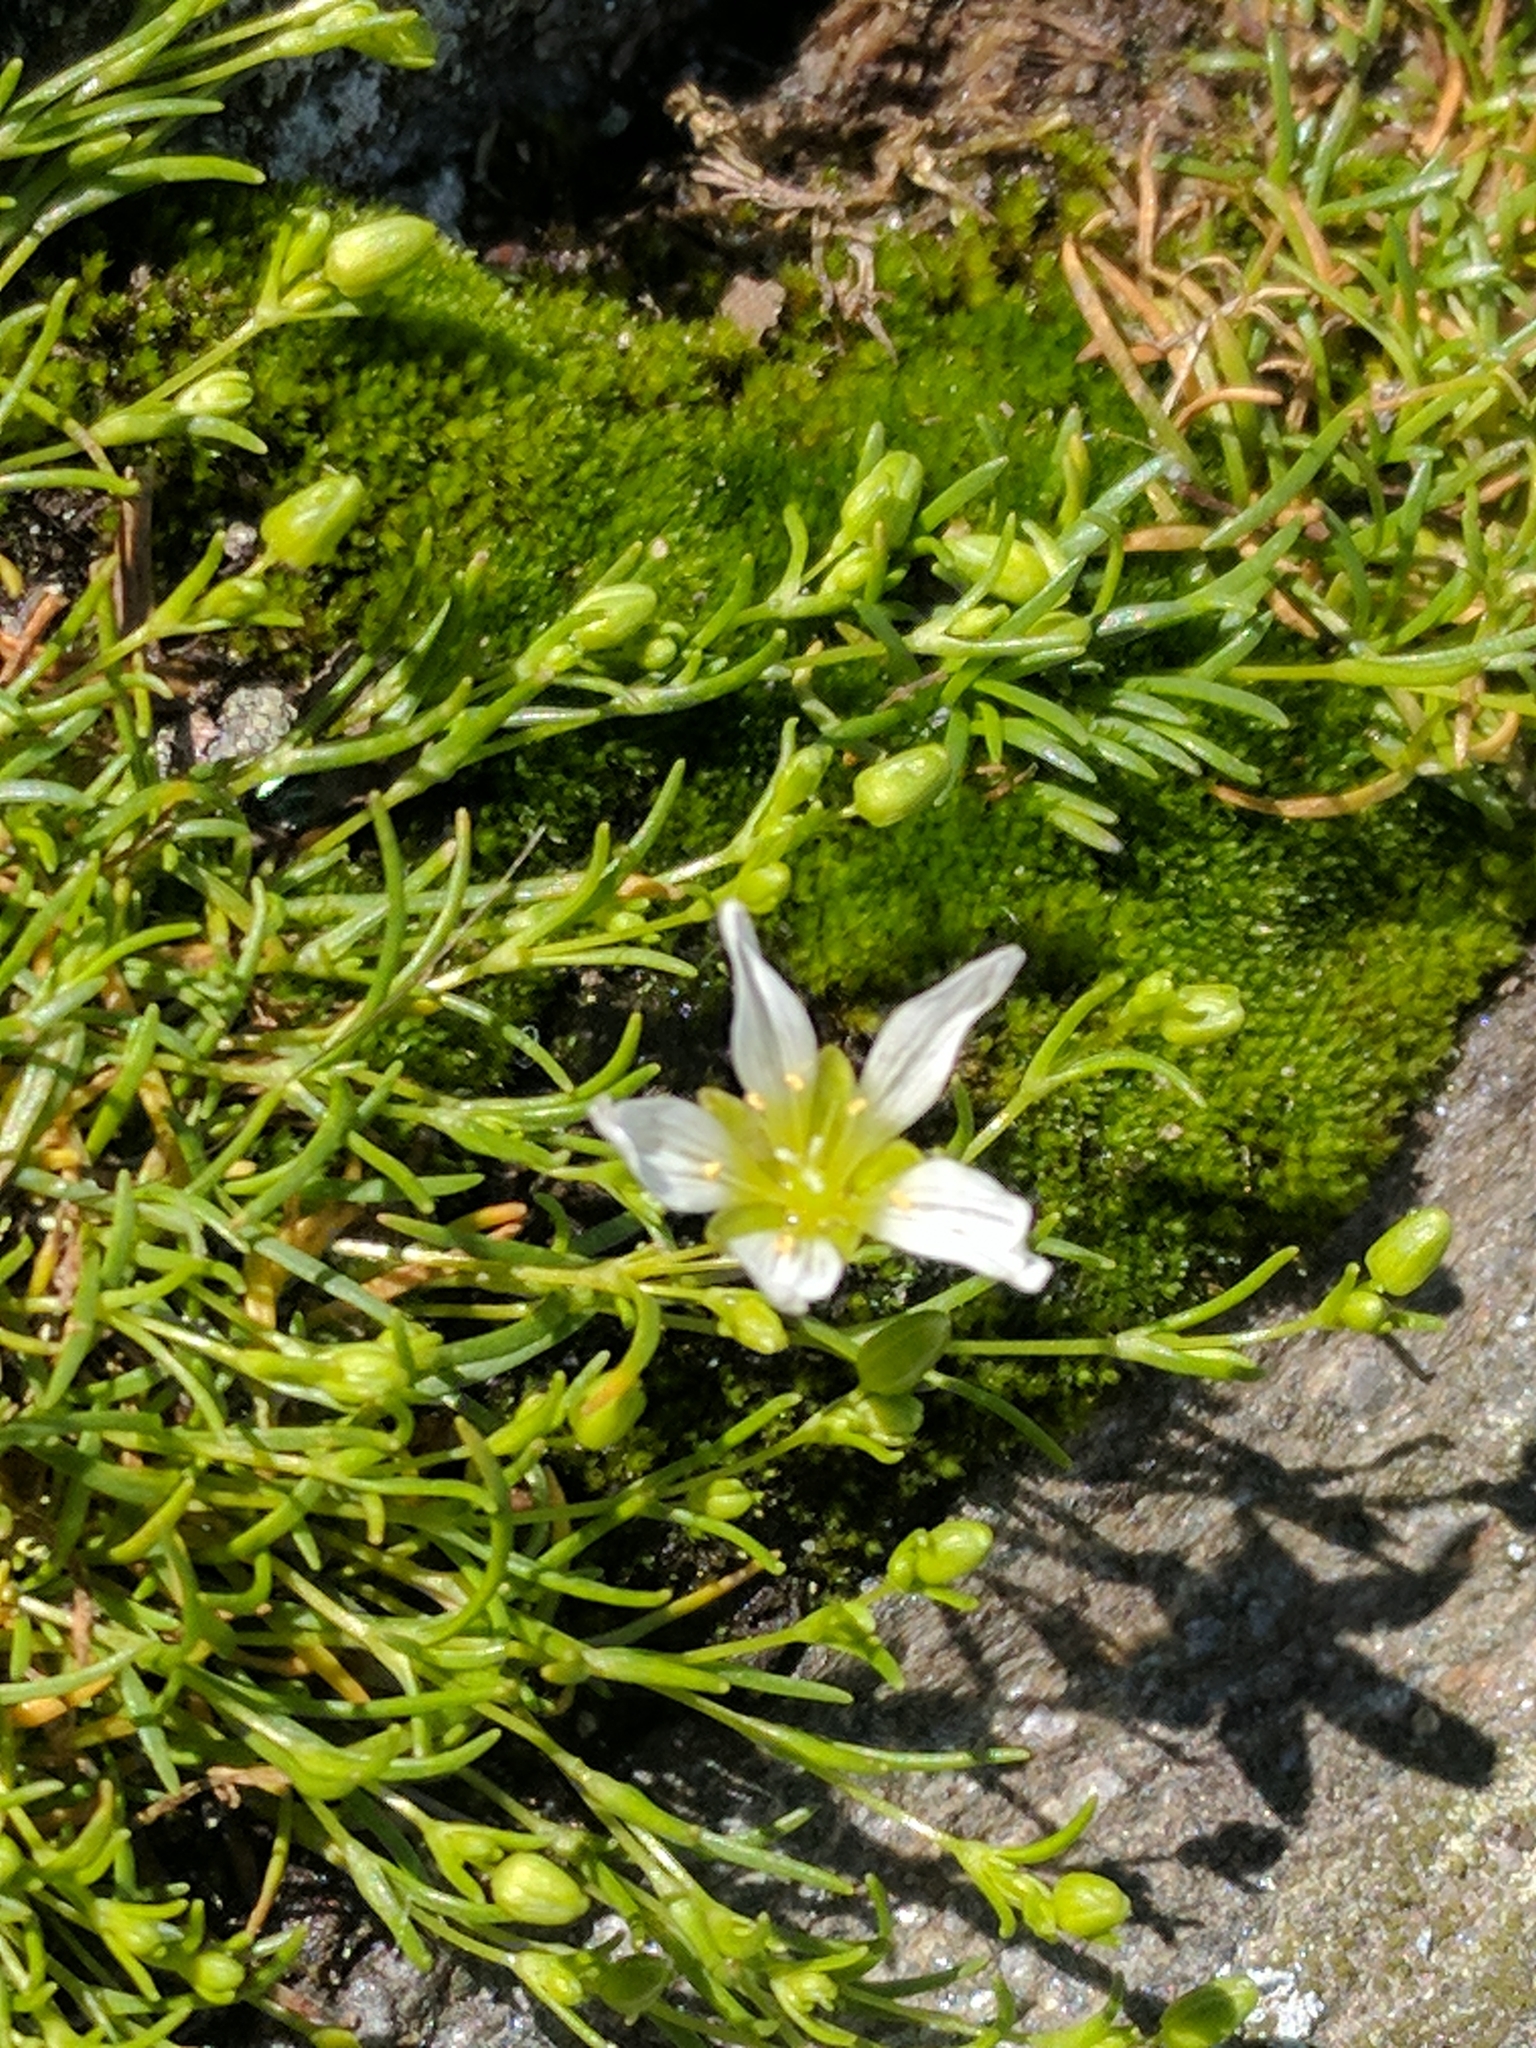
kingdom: Plantae
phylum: Tracheophyta
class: Magnoliopsida
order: Caryophyllales
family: Caryophyllaceae
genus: Geocarpon
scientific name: Geocarpon groenlandicum
